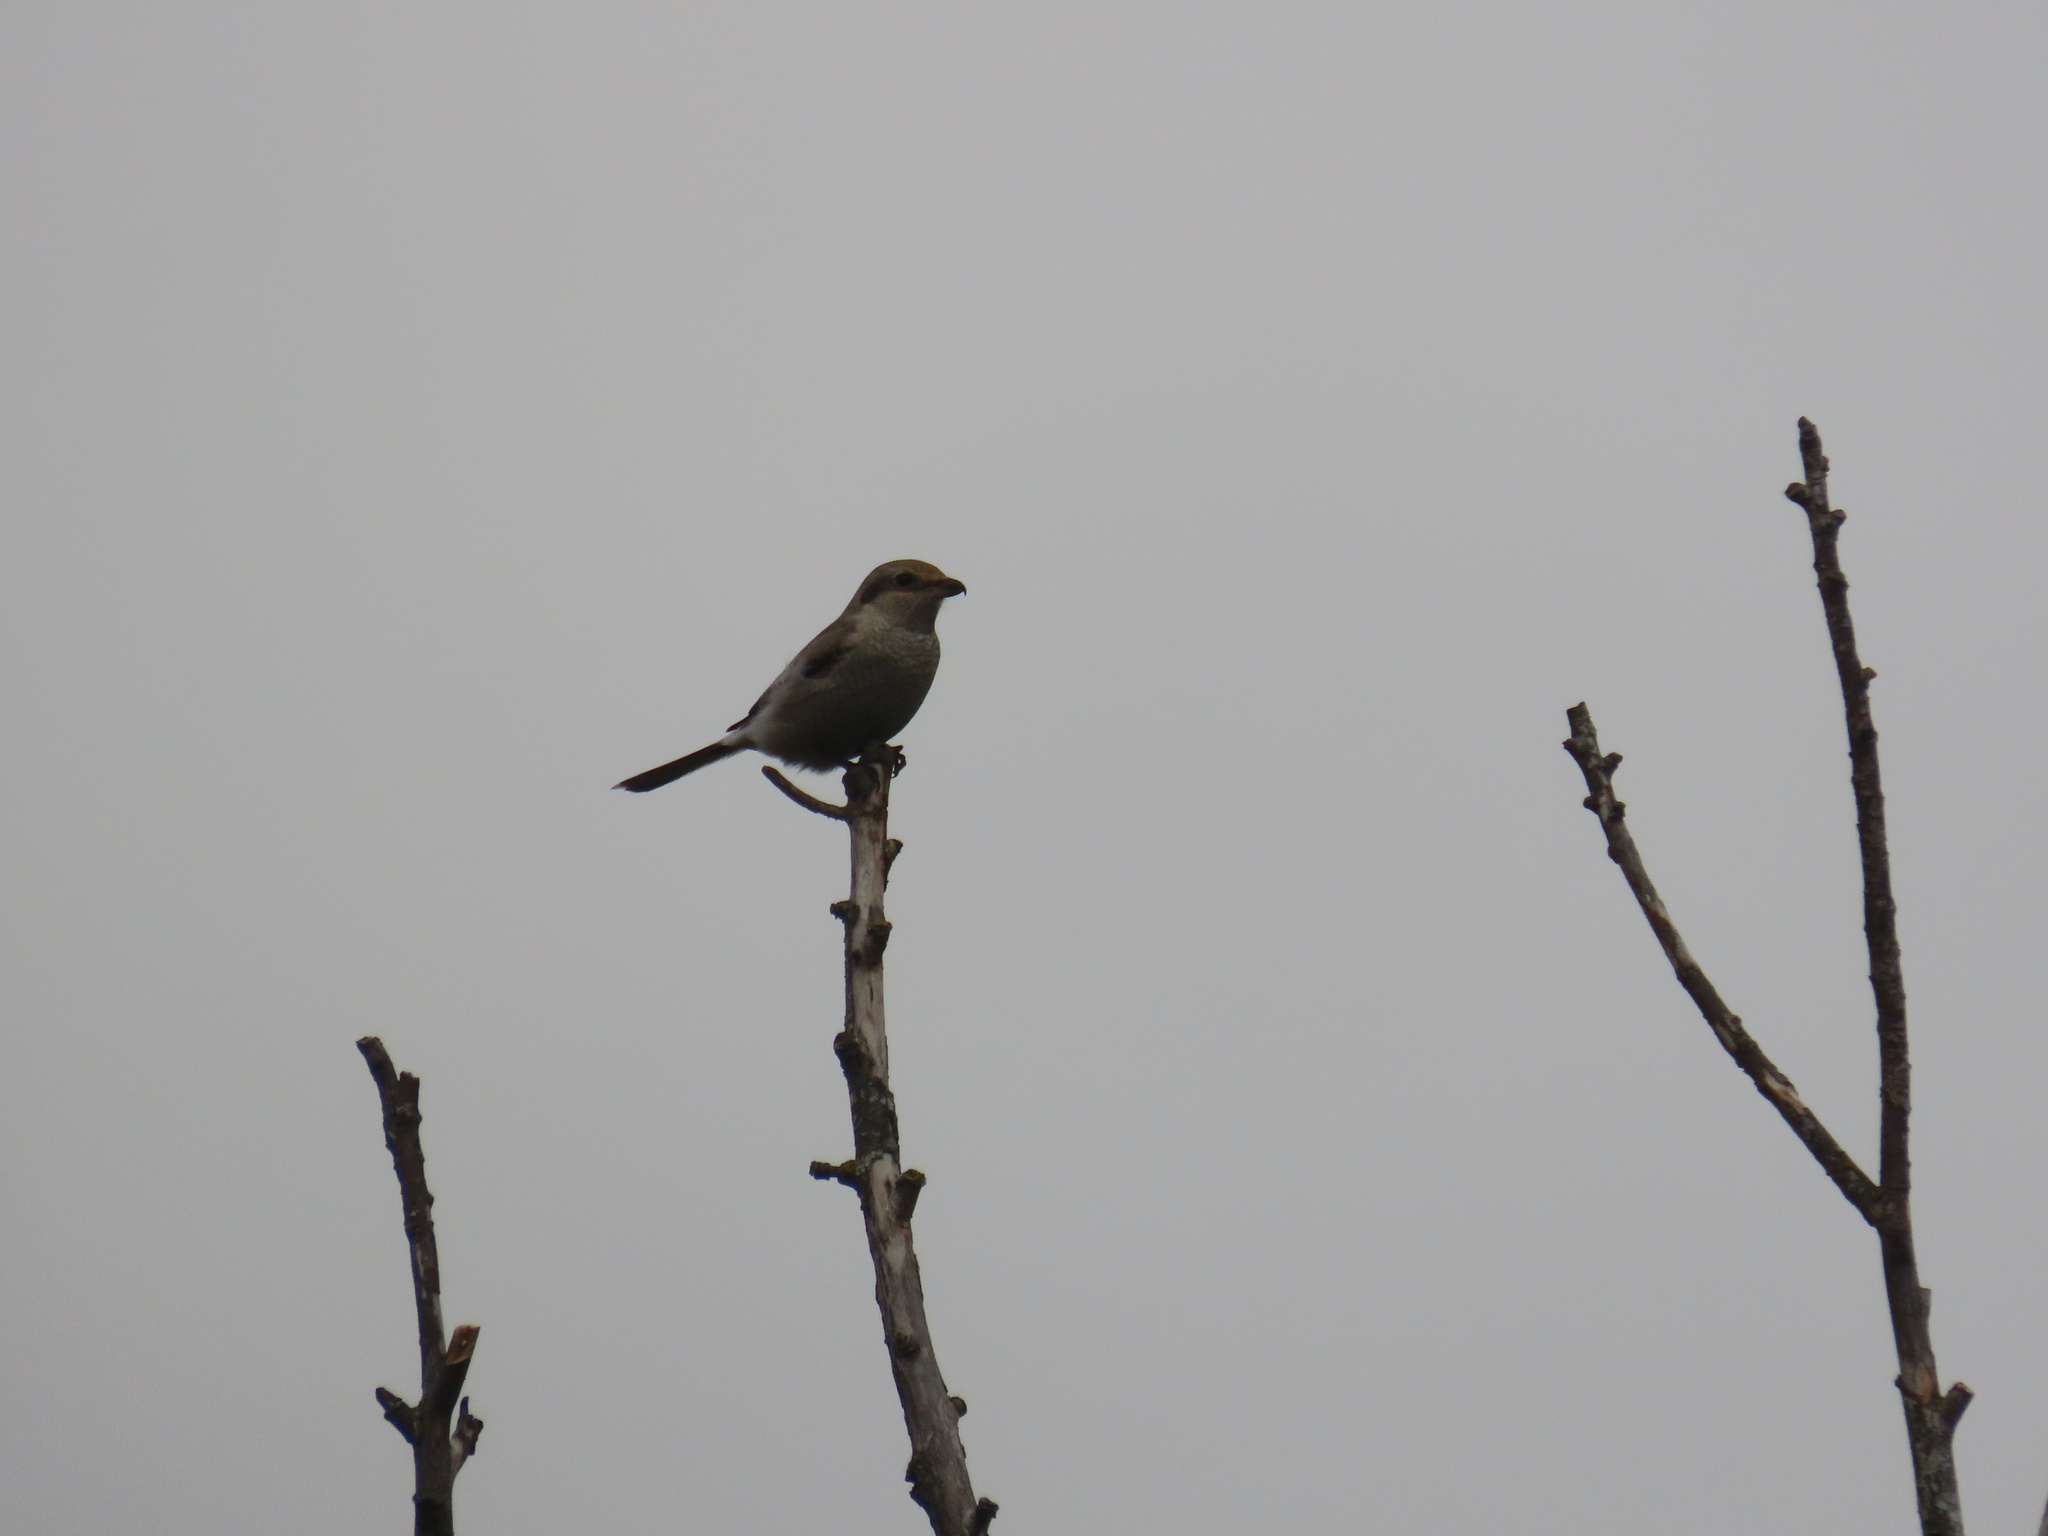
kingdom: Animalia
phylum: Chordata
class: Aves
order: Passeriformes
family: Laniidae
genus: Lanius
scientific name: Lanius borealis
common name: Northern shrike
